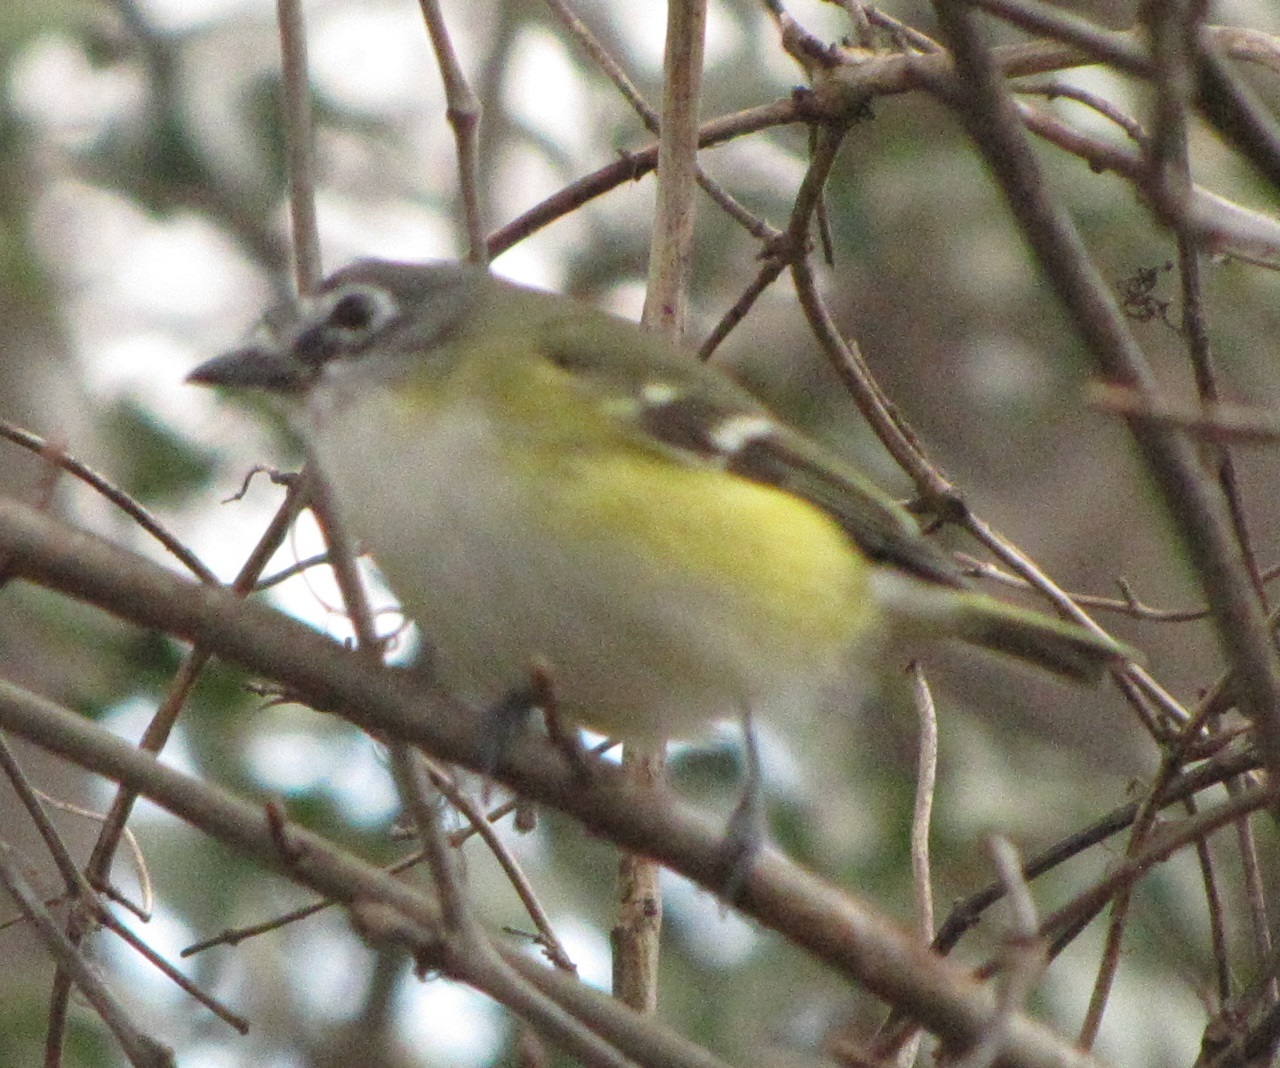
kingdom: Animalia
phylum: Chordata
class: Aves
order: Passeriformes
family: Vireonidae
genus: Vireo
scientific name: Vireo solitarius
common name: Blue-headed vireo
